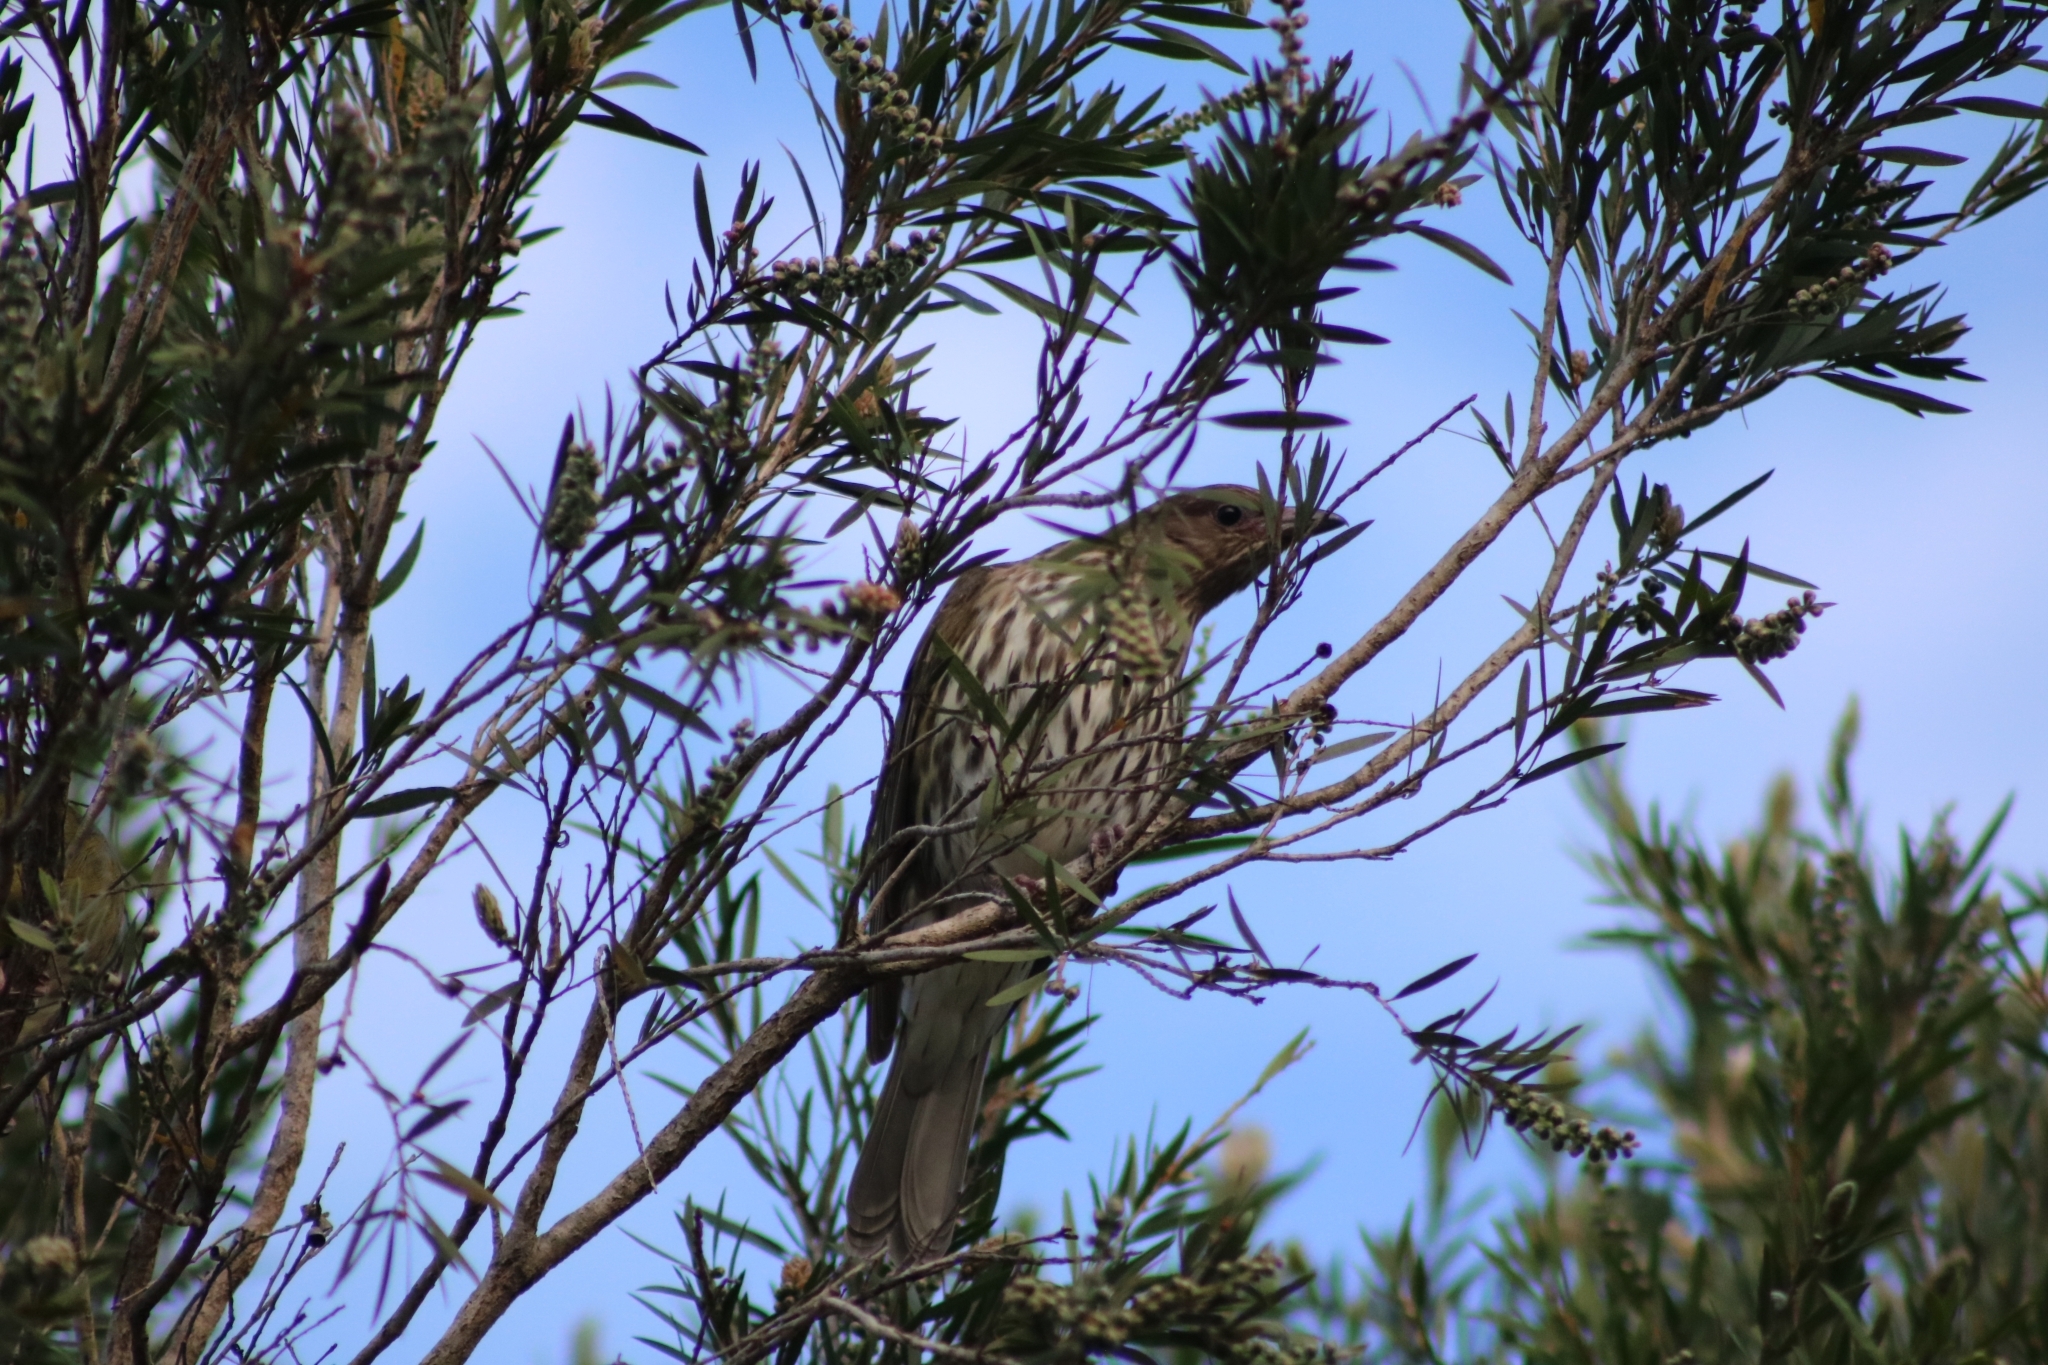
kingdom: Animalia
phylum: Chordata
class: Aves
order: Passeriformes
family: Oriolidae
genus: Sphecotheres
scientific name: Sphecotheres vieilloti
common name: Australasian figbird
